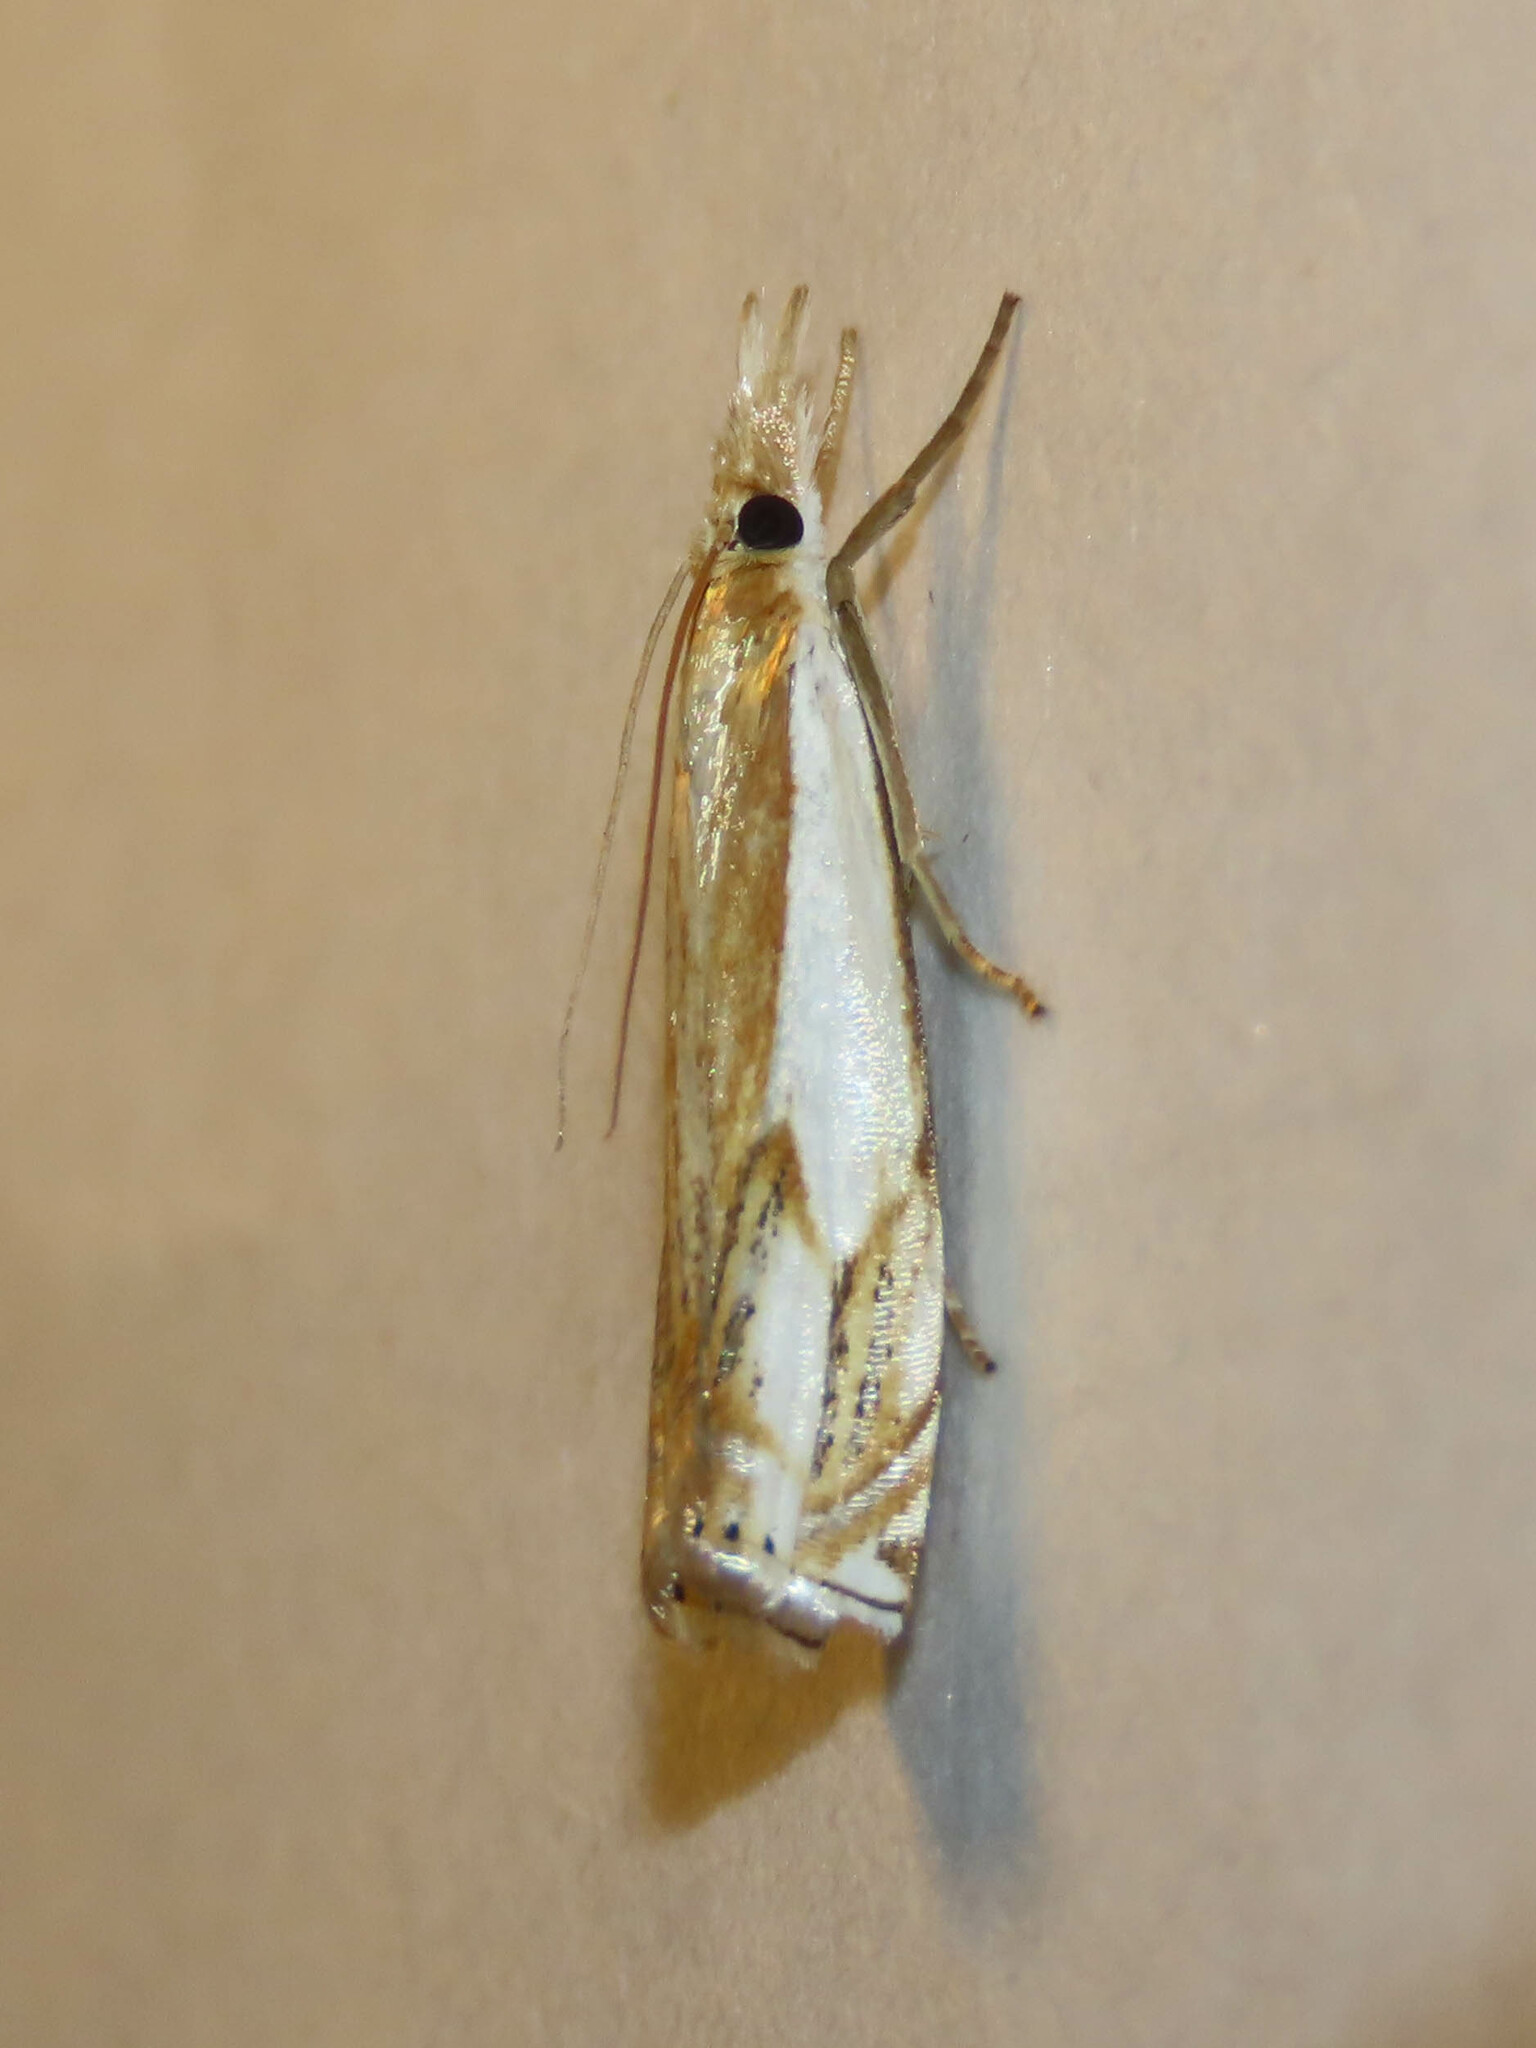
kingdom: Animalia
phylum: Arthropoda
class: Insecta
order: Lepidoptera
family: Crambidae
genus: Crambus
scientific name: Crambus agitatellus
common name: Double-banded grass-veneer
